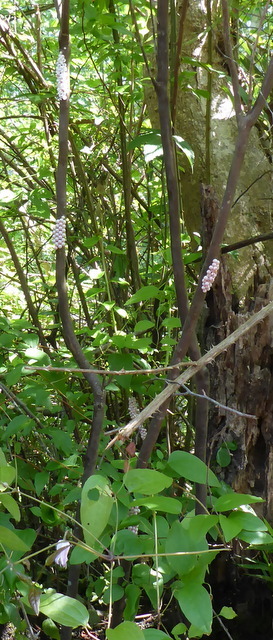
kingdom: Animalia
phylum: Mollusca
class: Gastropoda
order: Architaenioglossa
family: Ampullariidae
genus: Pomacea
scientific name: Pomacea paludosa
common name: Florida applesnail
